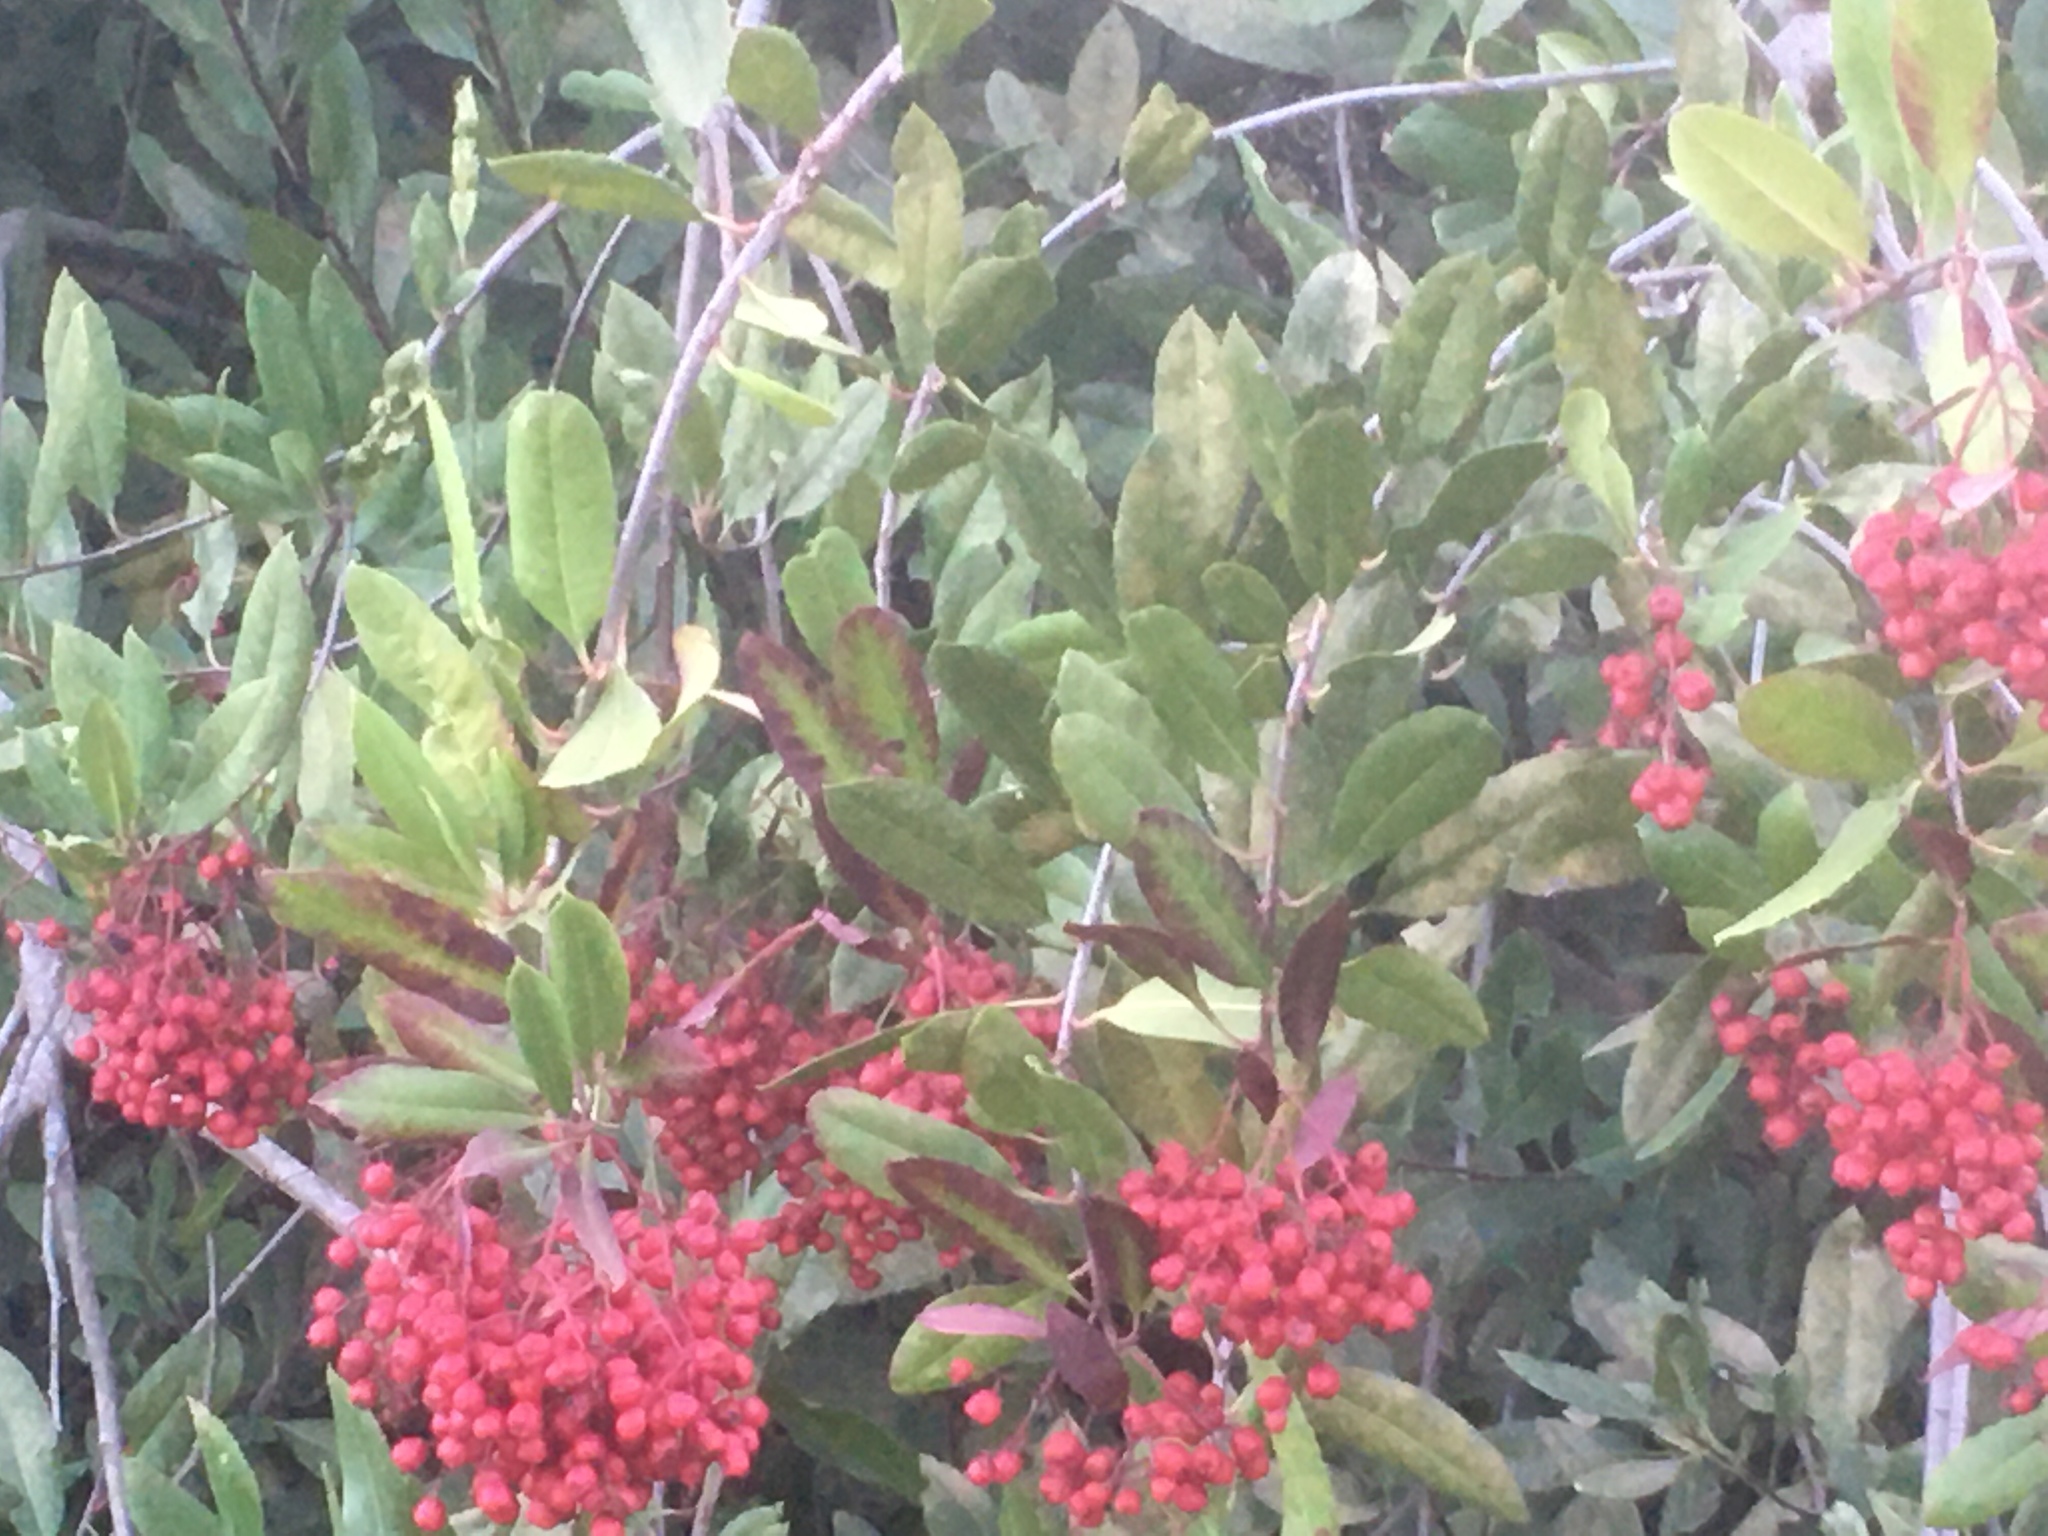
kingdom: Plantae
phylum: Tracheophyta
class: Magnoliopsida
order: Rosales
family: Rosaceae
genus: Heteromeles
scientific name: Heteromeles arbutifolia
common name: California-holly
